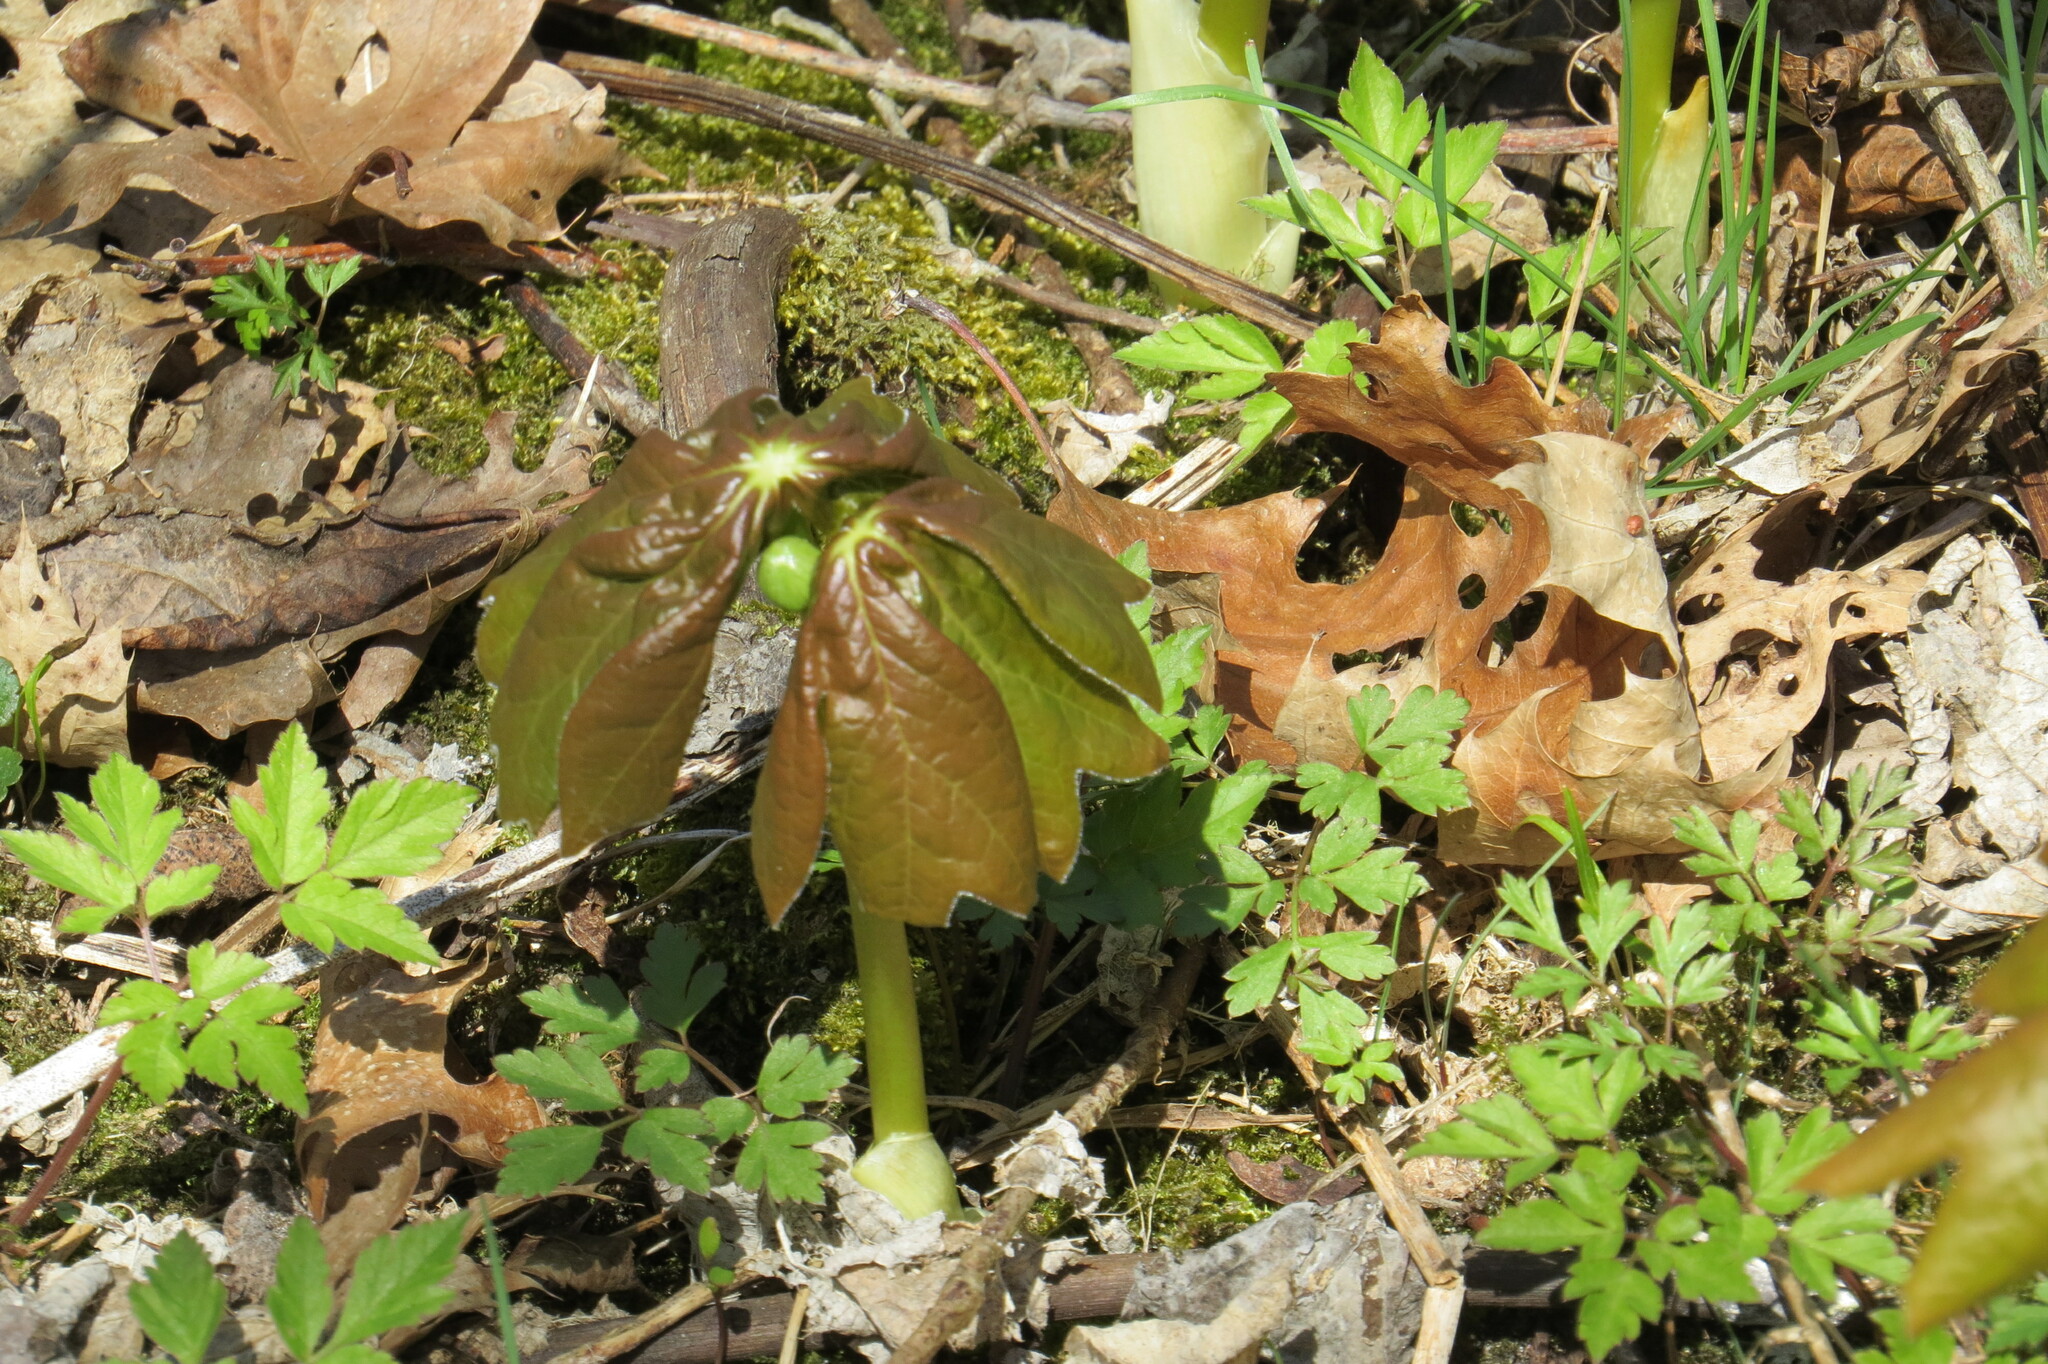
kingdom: Plantae
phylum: Tracheophyta
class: Magnoliopsida
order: Ranunculales
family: Berberidaceae
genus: Podophyllum
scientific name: Podophyllum peltatum
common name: Wild mandrake
